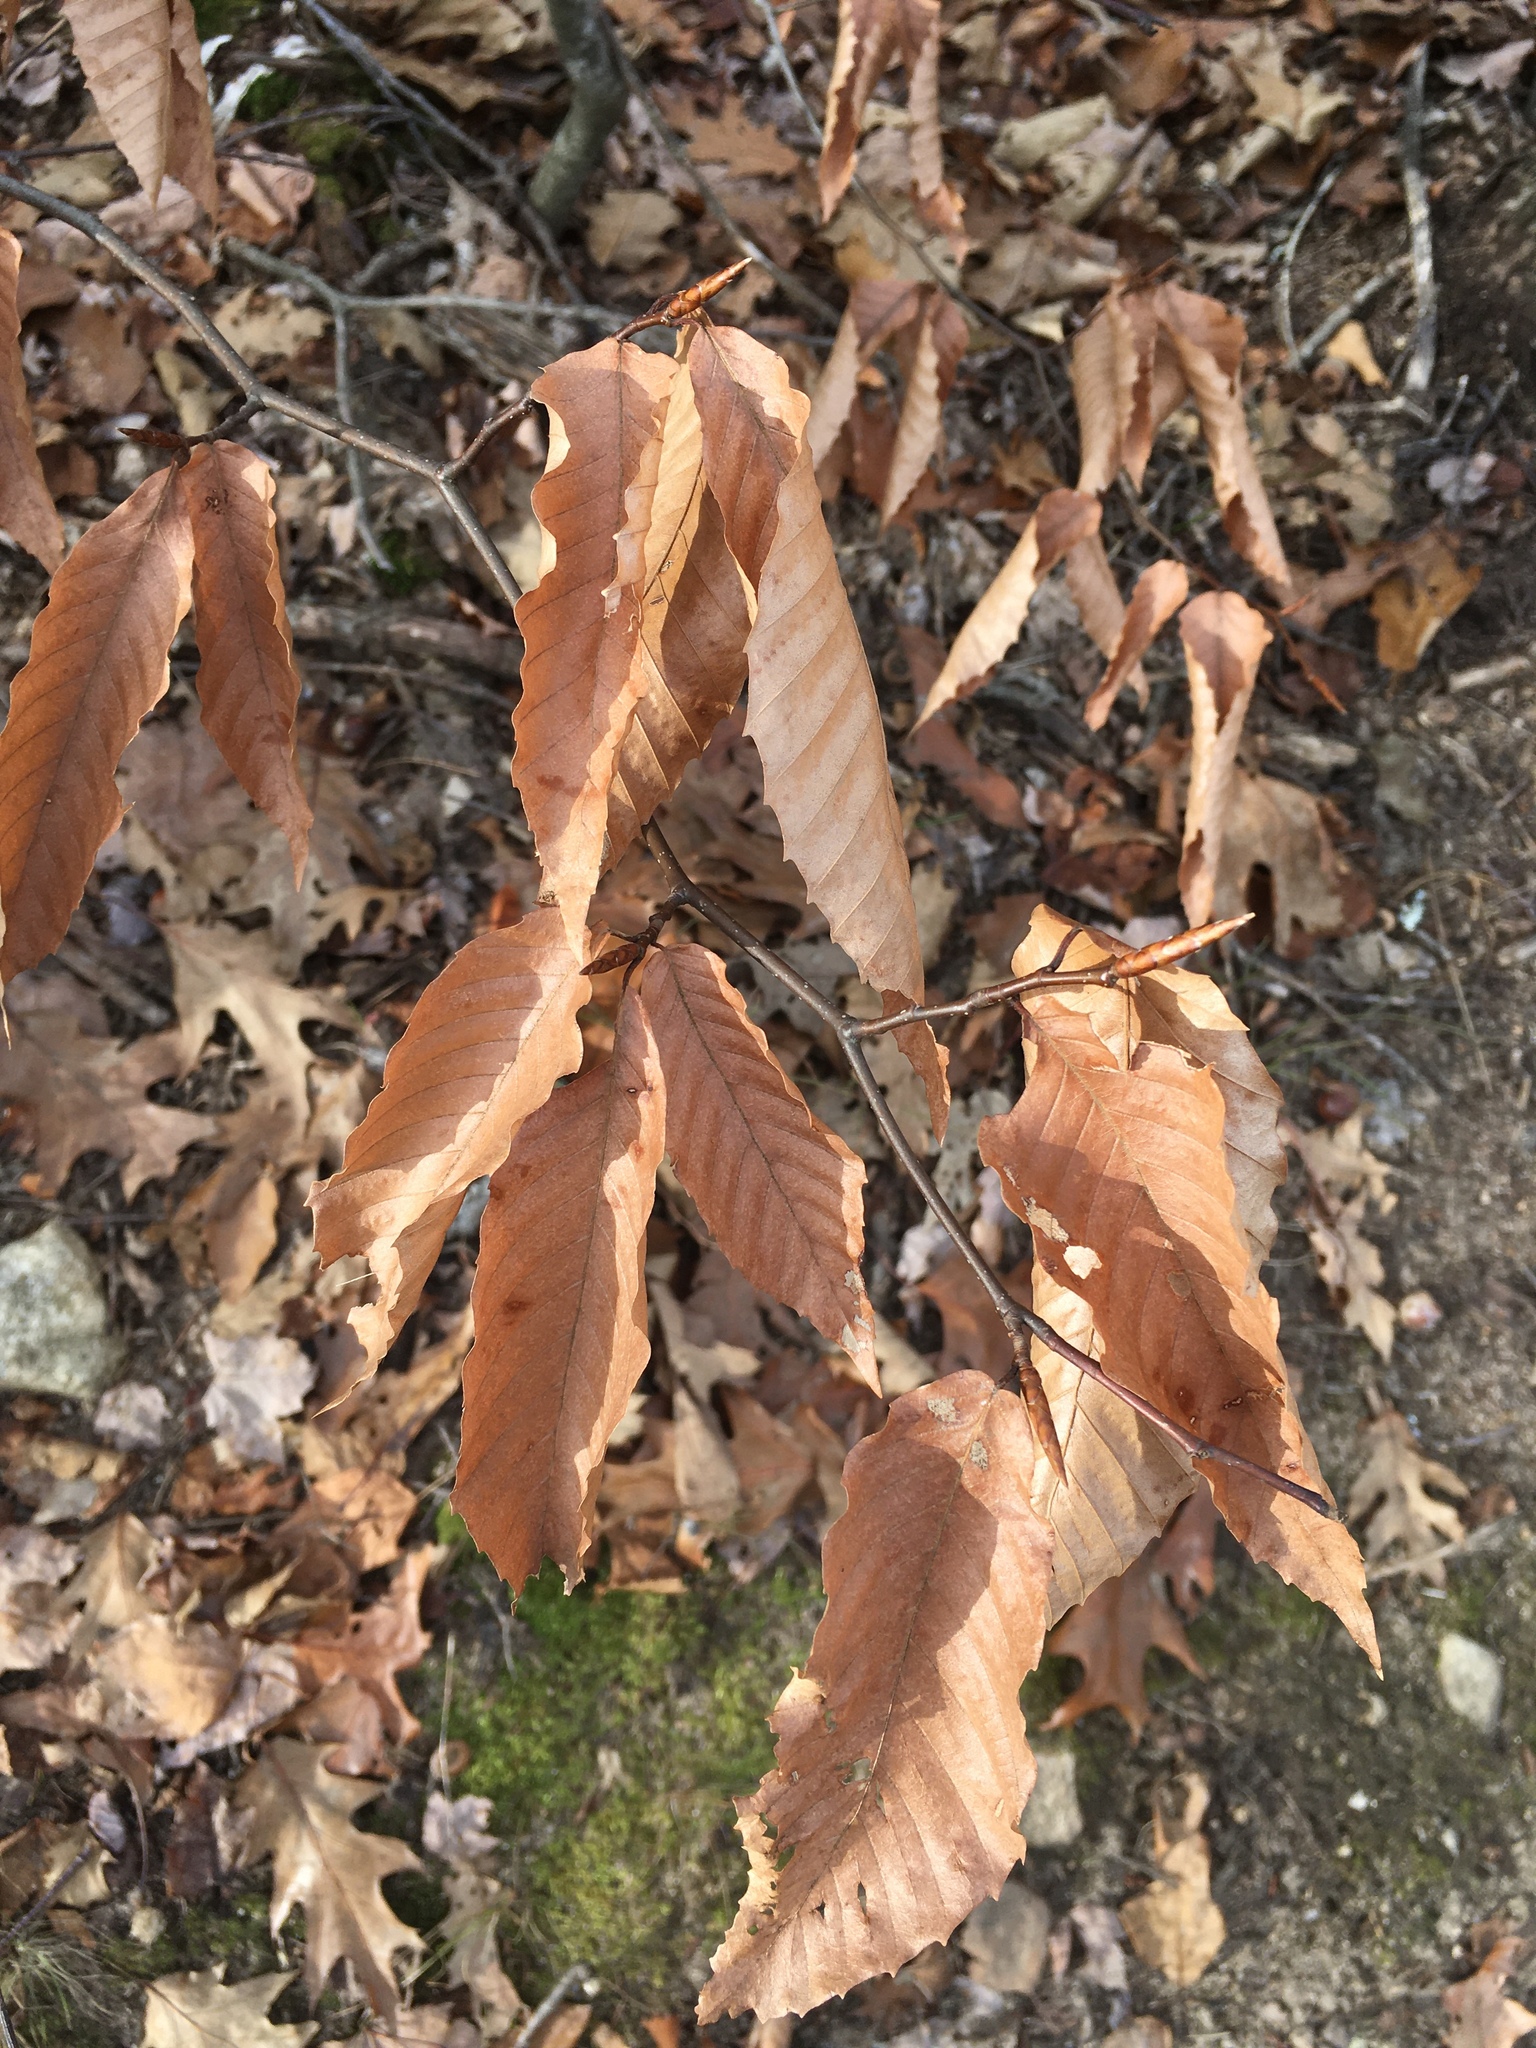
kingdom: Plantae
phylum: Tracheophyta
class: Magnoliopsida
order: Fagales
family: Fagaceae
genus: Fagus
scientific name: Fagus grandifolia
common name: American beech
